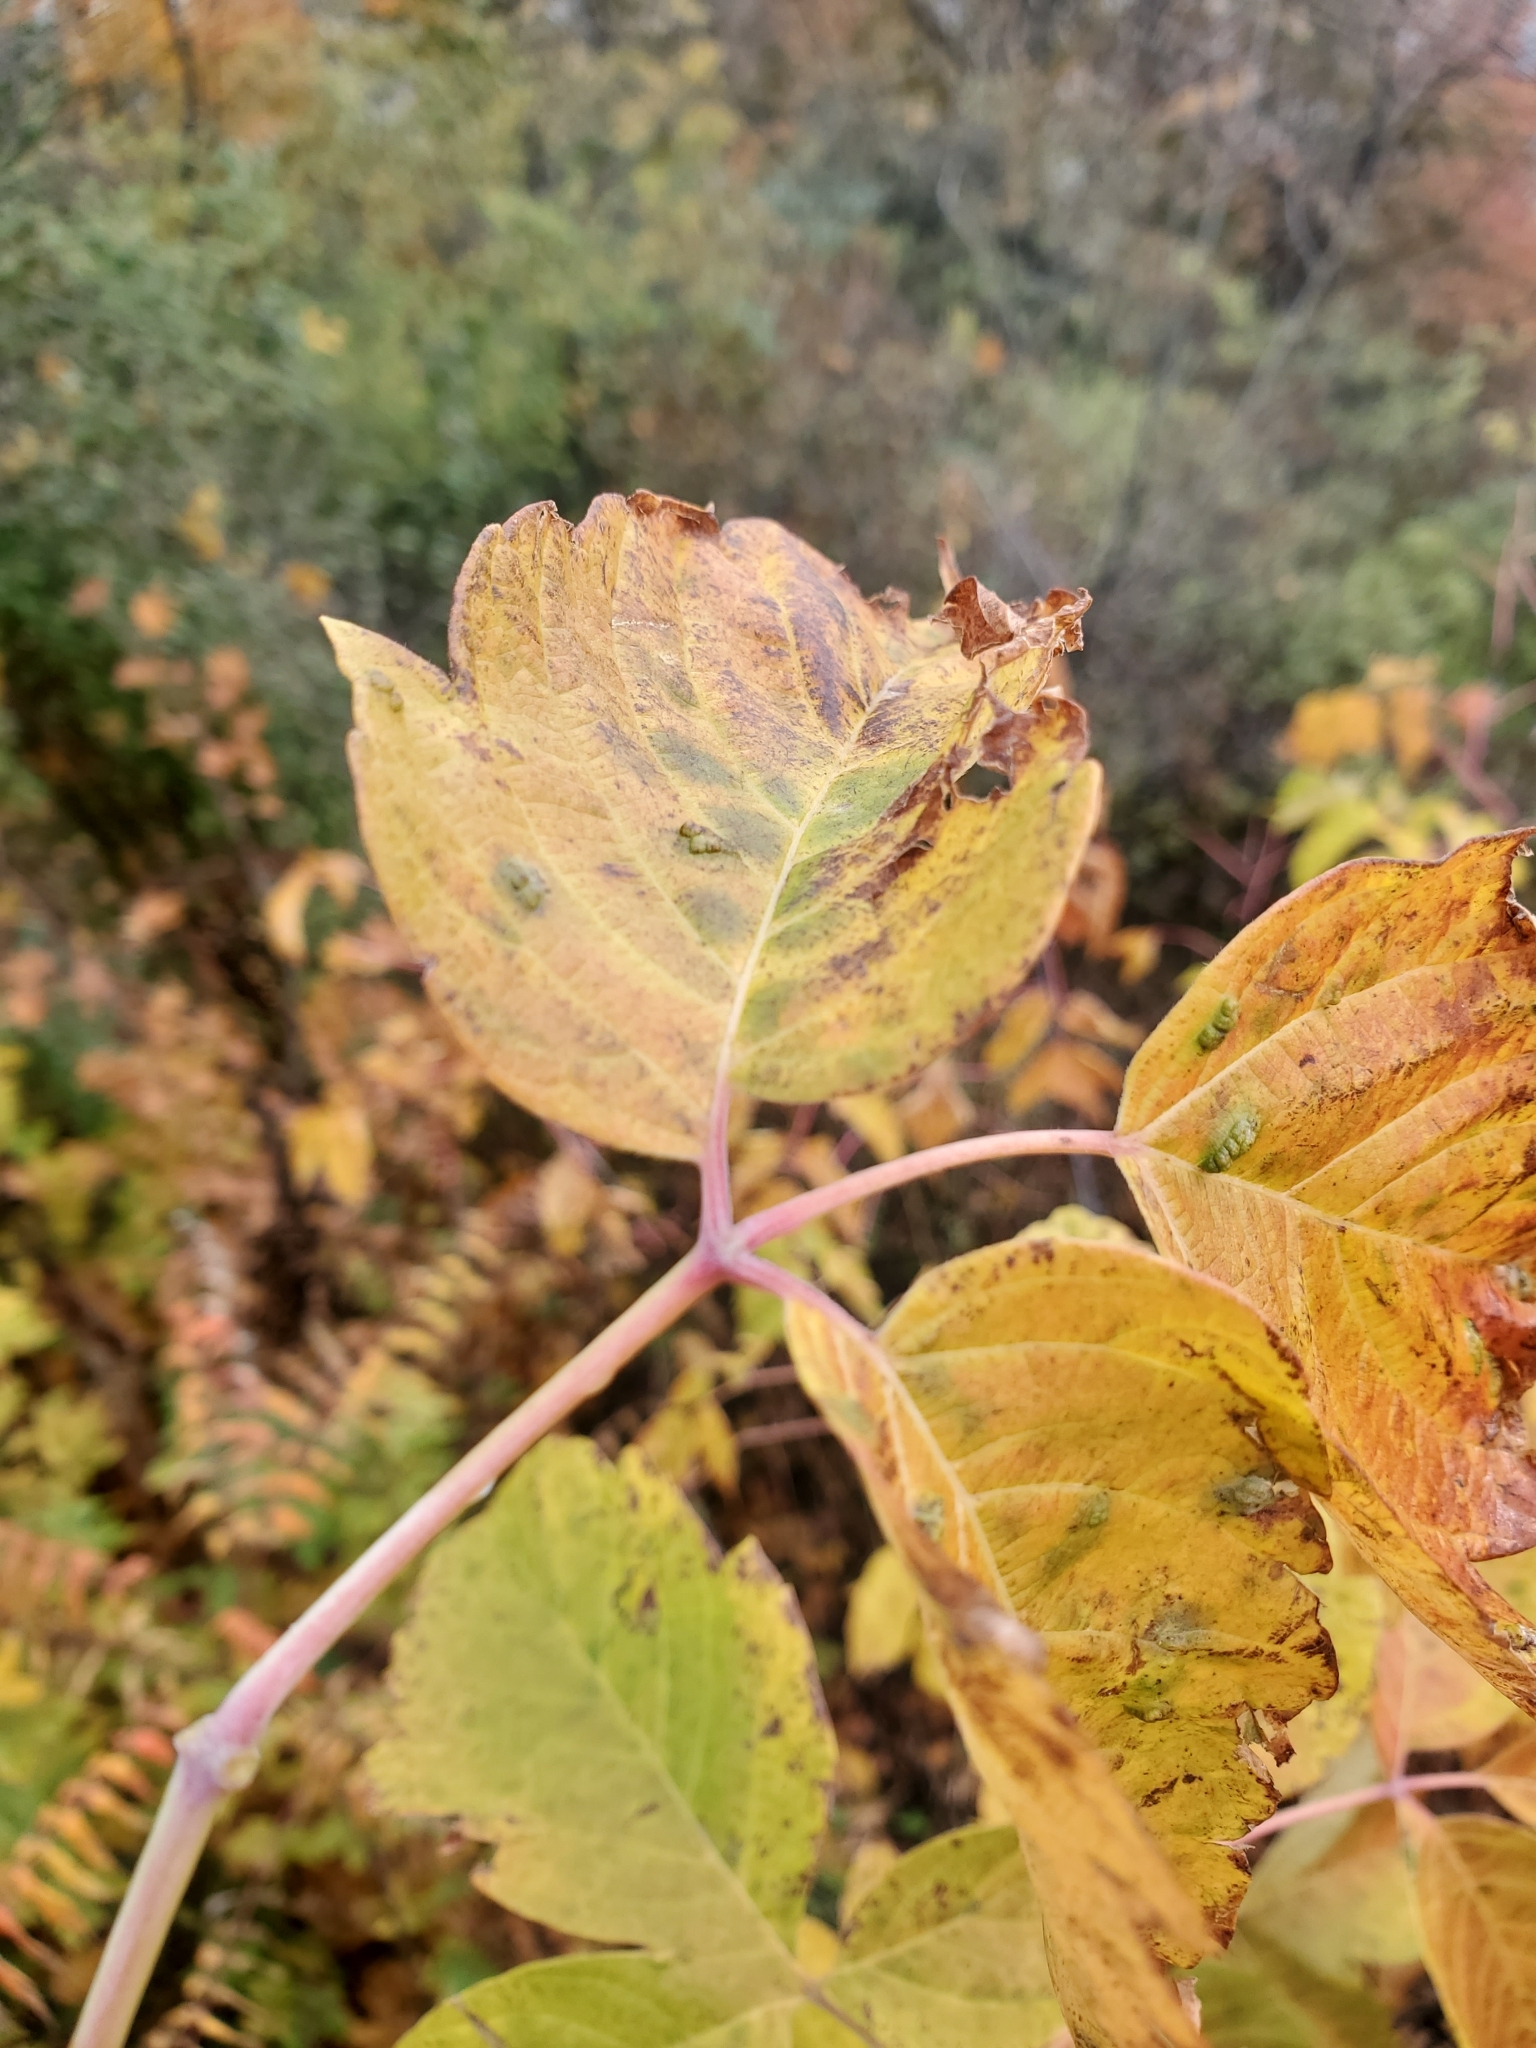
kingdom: Plantae
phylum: Tracheophyta
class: Magnoliopsida
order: Sapindales
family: Sapindaceae
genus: Acer
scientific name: Acer negundo
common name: Ashleaf maple
